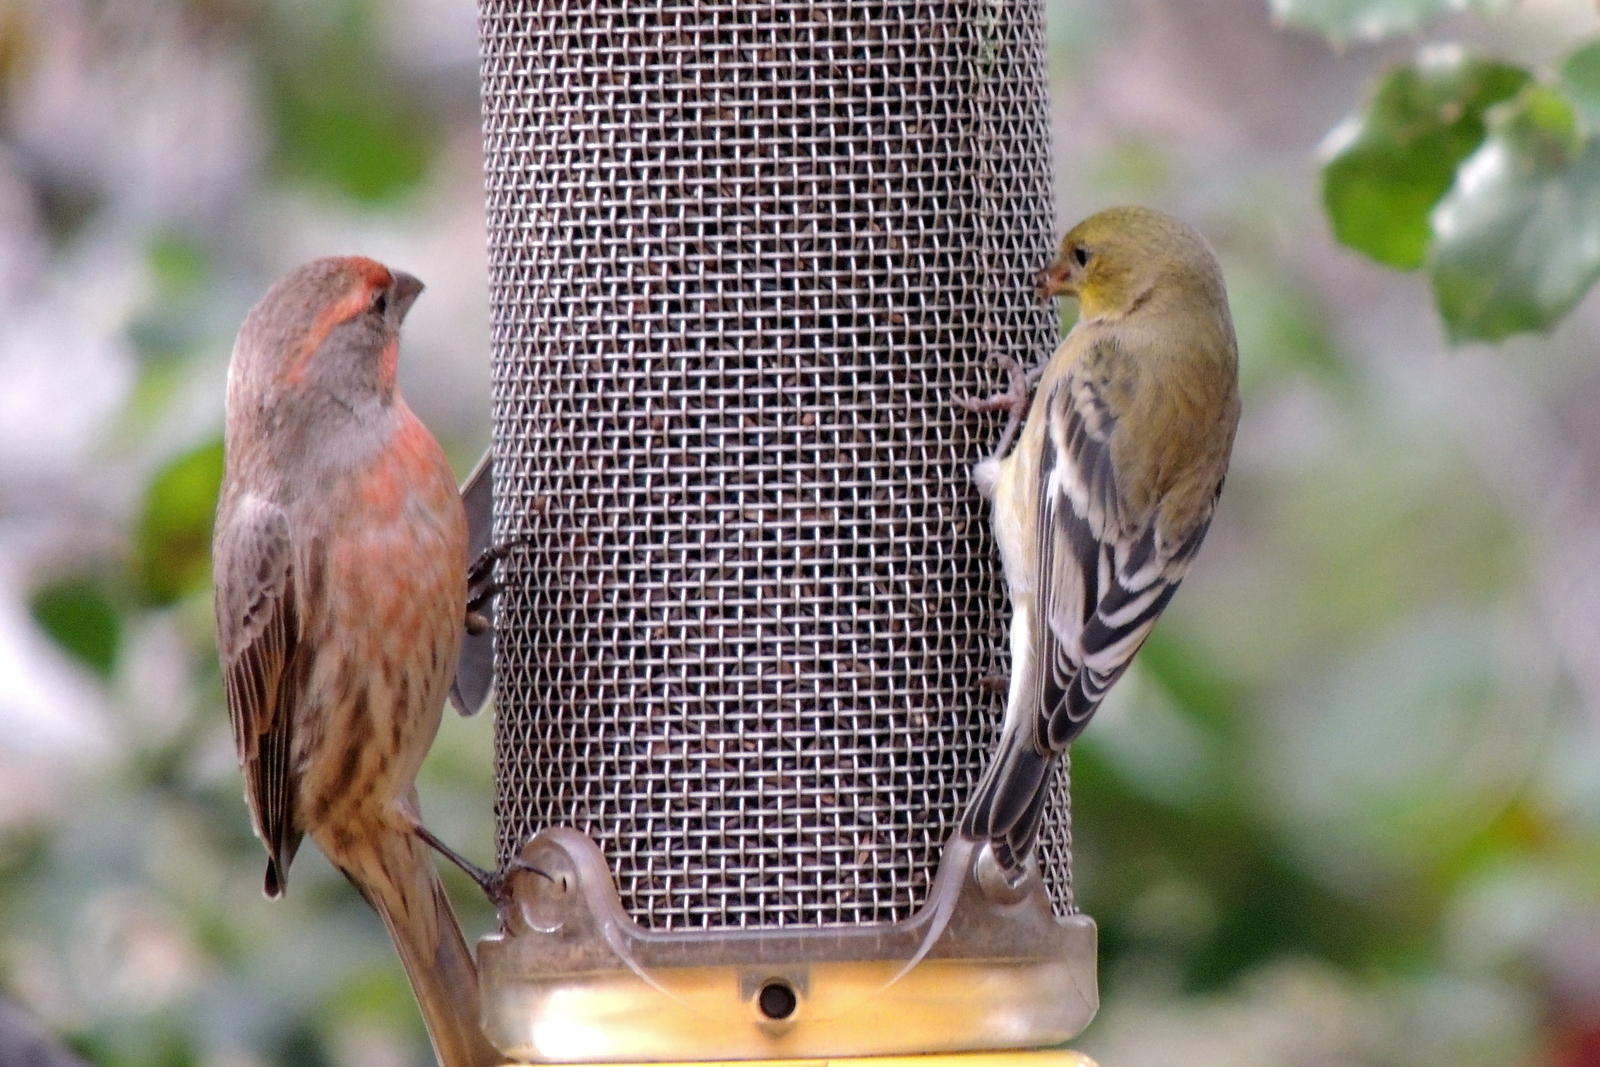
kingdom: Animalia
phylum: Chordata
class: Aves
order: Passeriformes
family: Fringillidae
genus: Haemorhous
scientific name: Haemorhous mexicanus
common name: House finch
